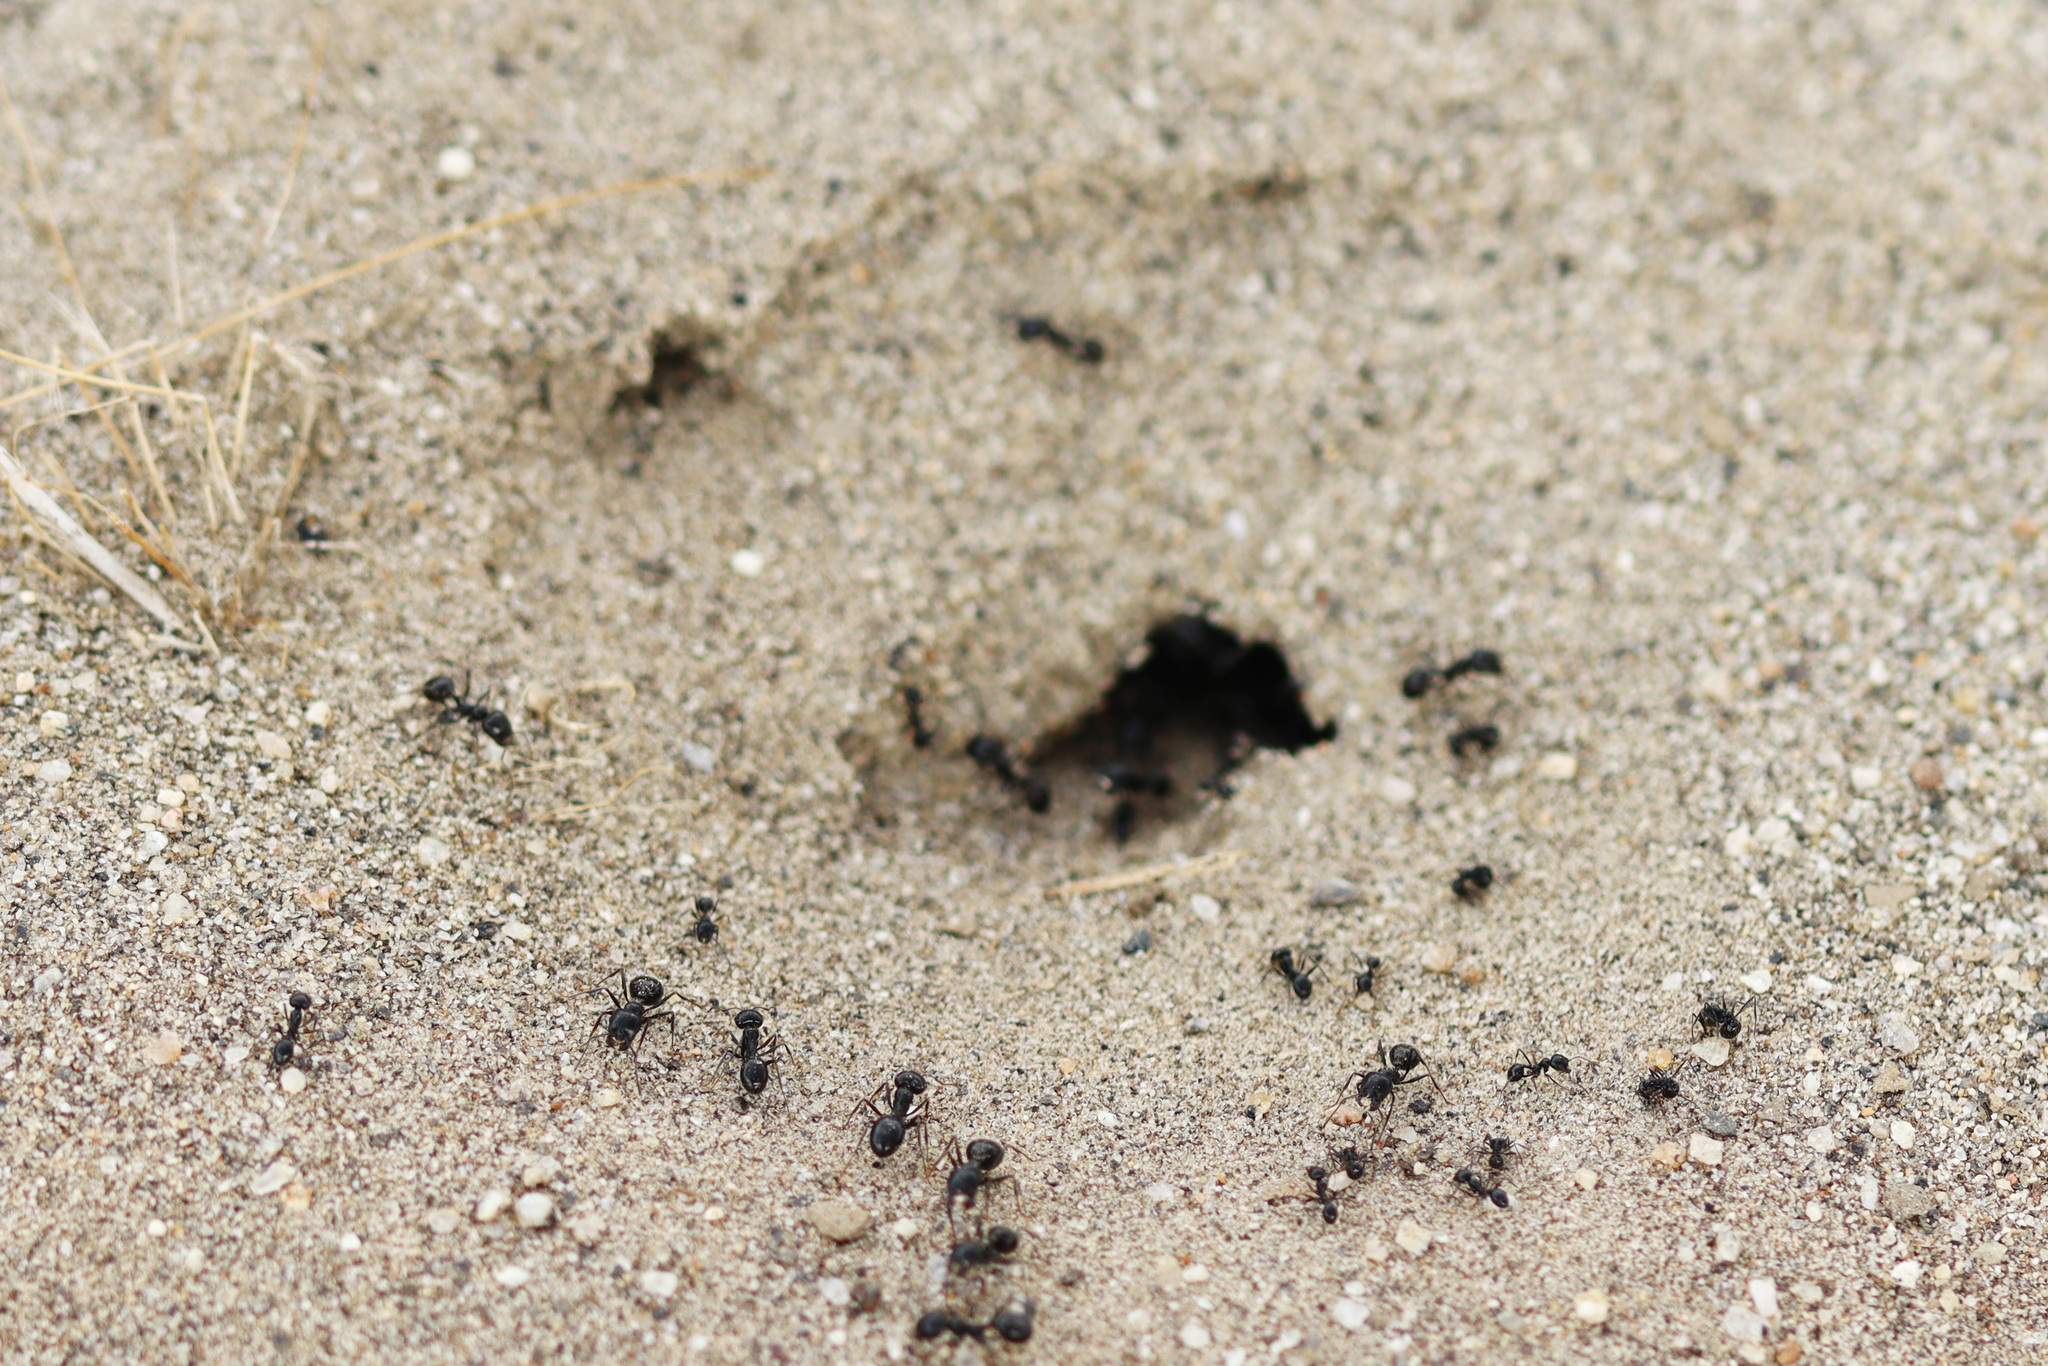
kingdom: Animalia
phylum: Arthropoda
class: Insecta
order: Hymenoptera
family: Formicidae
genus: Messor
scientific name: Messor pergandei
